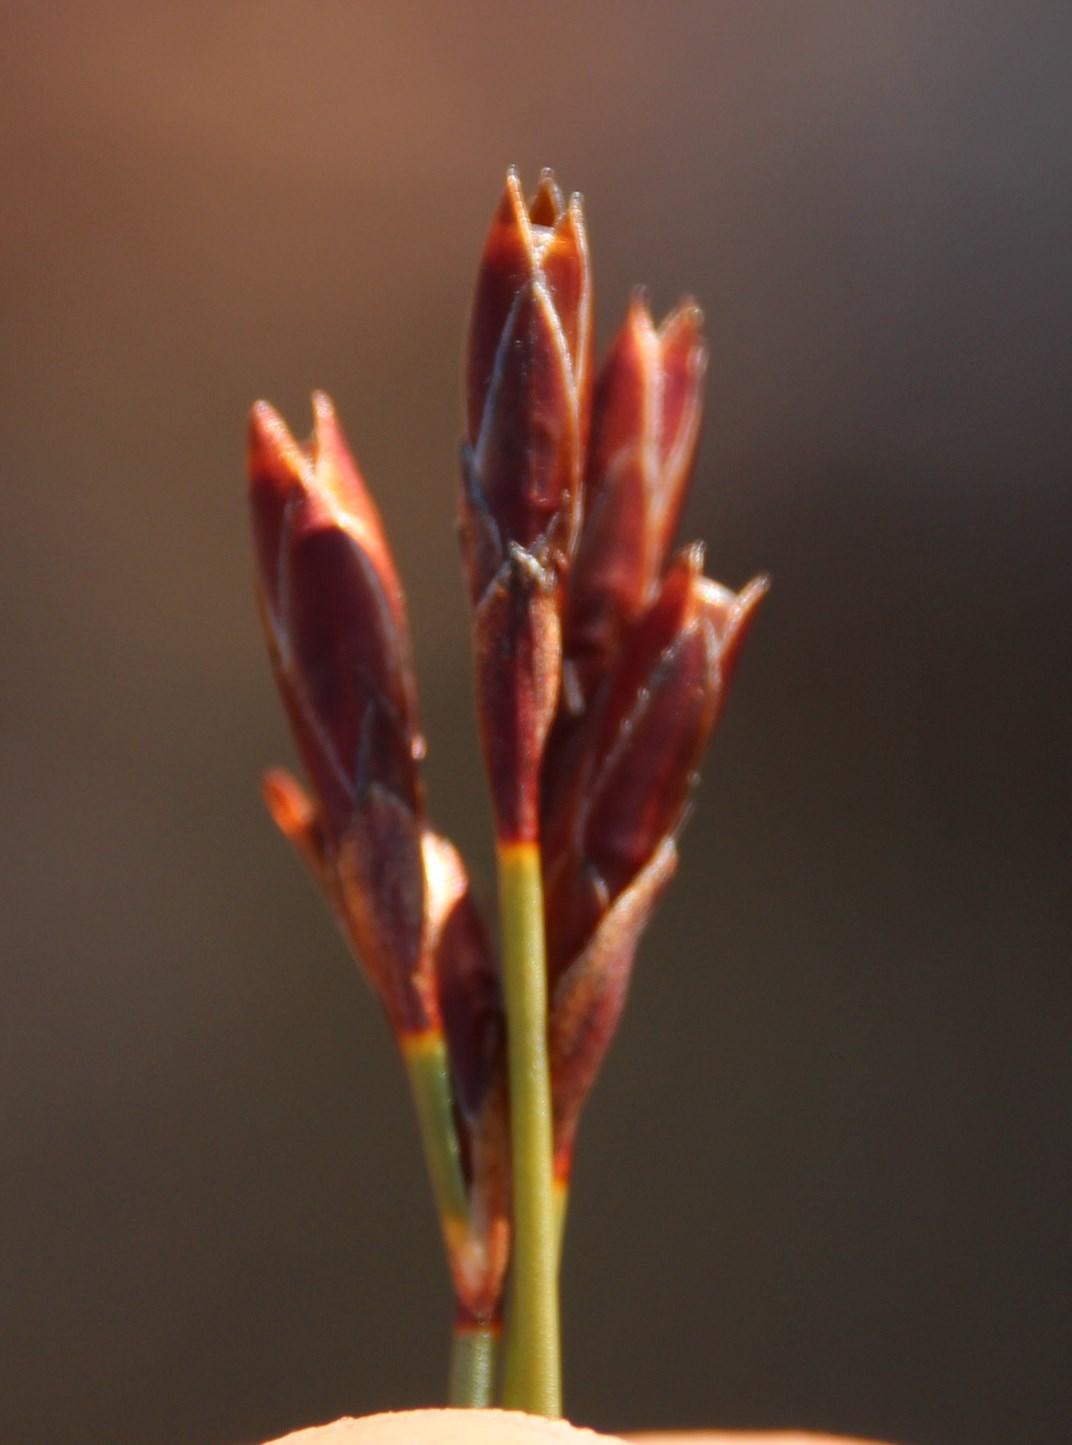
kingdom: Plantae
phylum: Tracheophyta
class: Liliopsida
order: Poales
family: Restionaceae
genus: Hypodiscus
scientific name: Hypodiscus striatus
